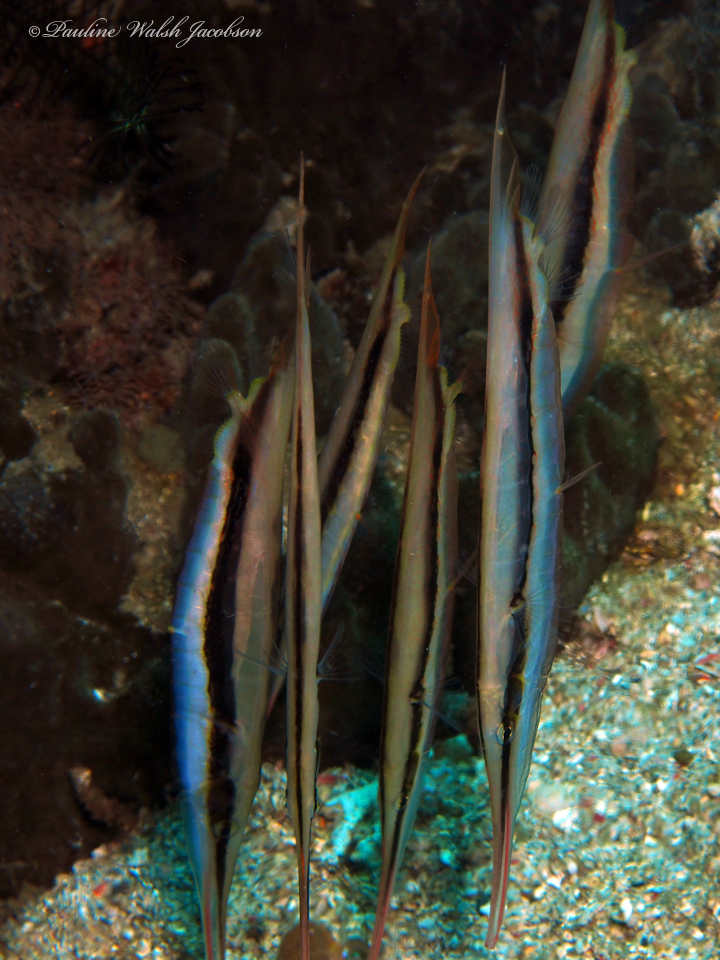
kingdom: Animalia
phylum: Chordata
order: Syngnathiformes
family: Centriscidae
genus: Aeoliscus
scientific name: Aeoliscus strigatus
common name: Canif
